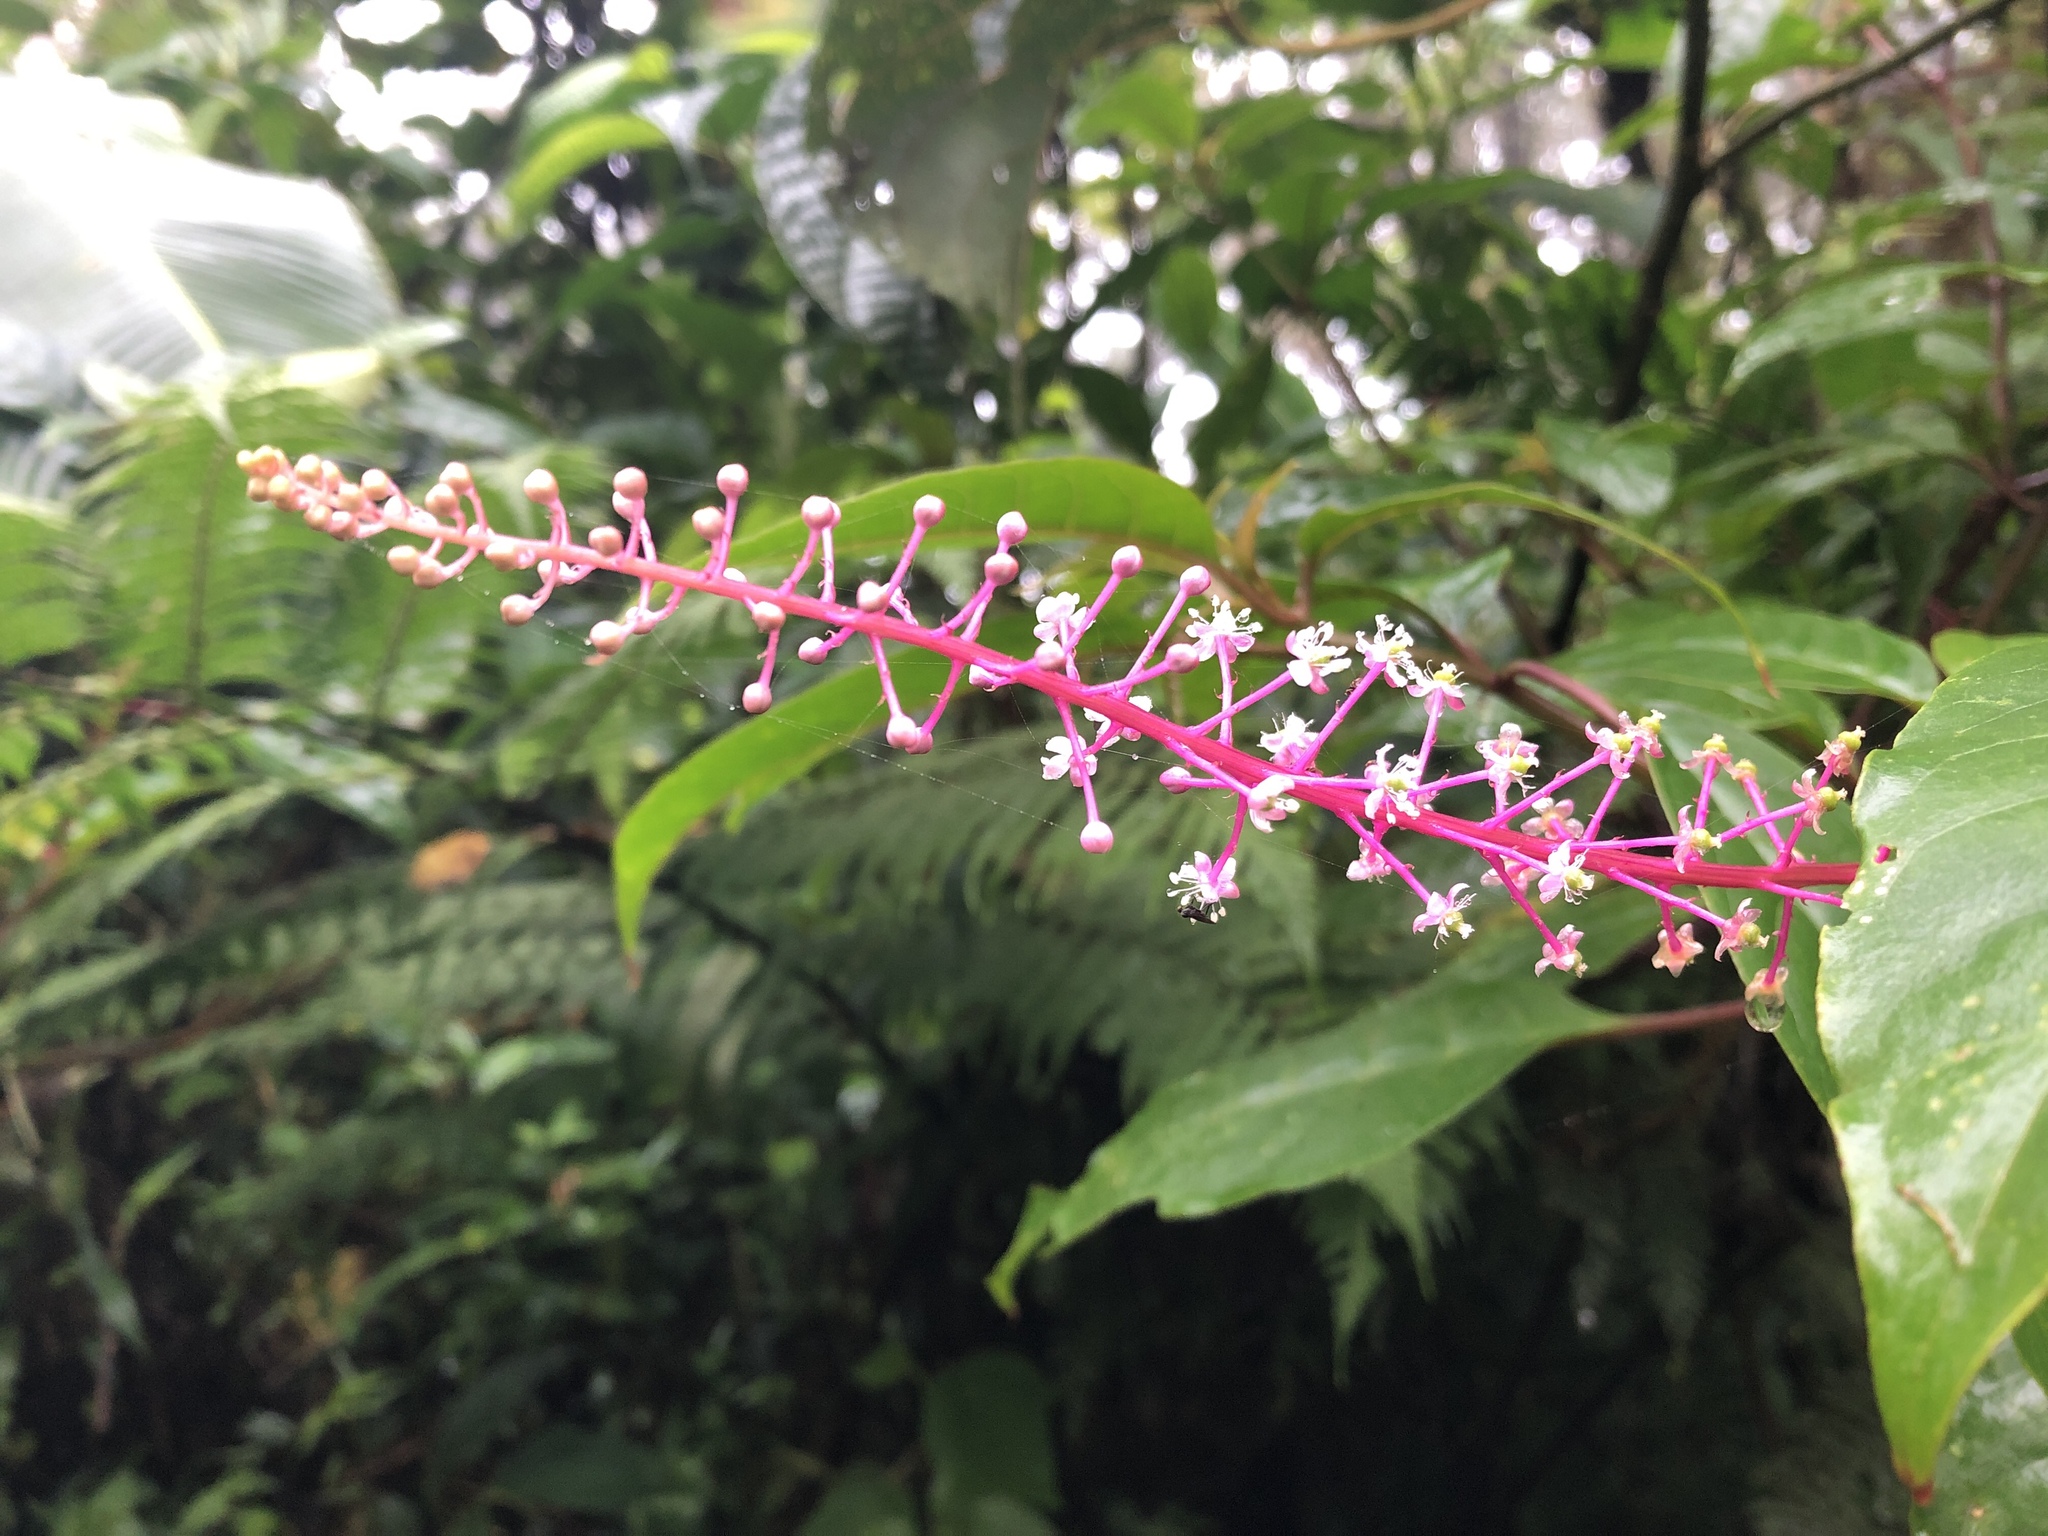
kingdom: Plantae
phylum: Tracheophyta
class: Magnoliopsida
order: Caryophyllales
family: Phytolaccaceae
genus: Phytolacca
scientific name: Phytolacca rivinoides
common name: Venezuelan pokeweed
